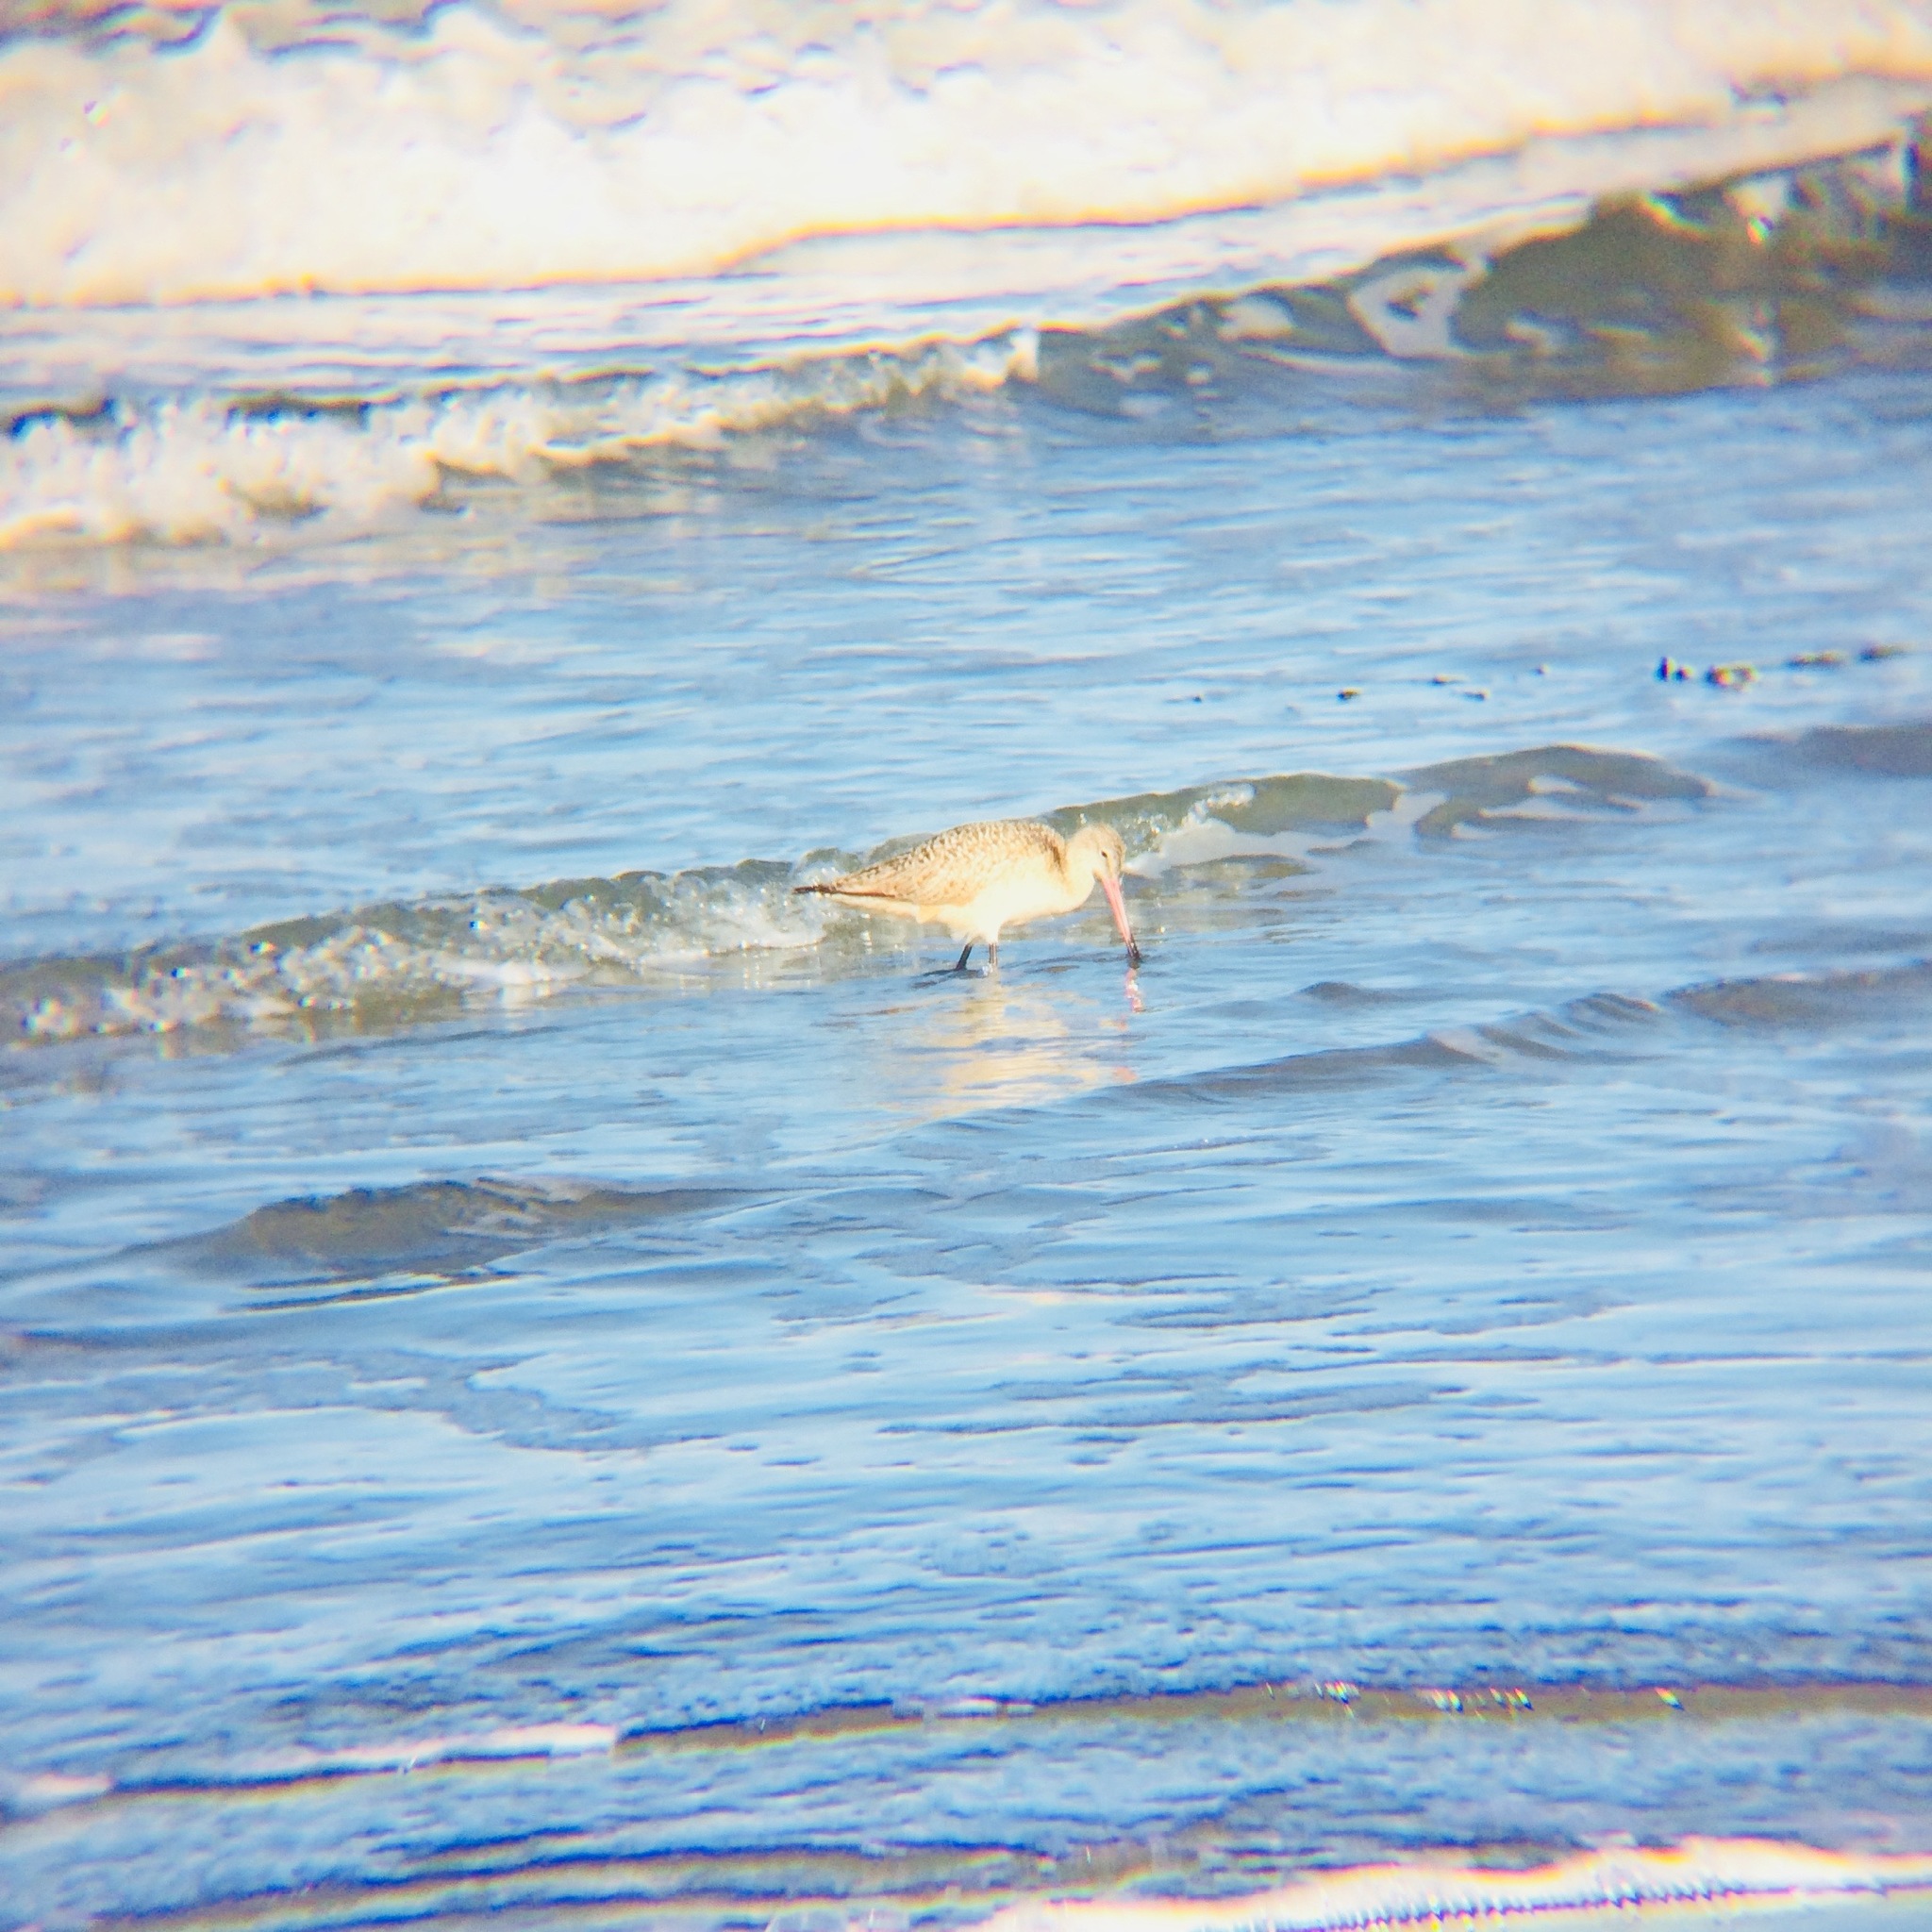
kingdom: Animalia
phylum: Chordata
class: Aves
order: Charadriiformes
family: Scolopacidae
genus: Limosa
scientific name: Limosa fedoa
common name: Marbled godwit
